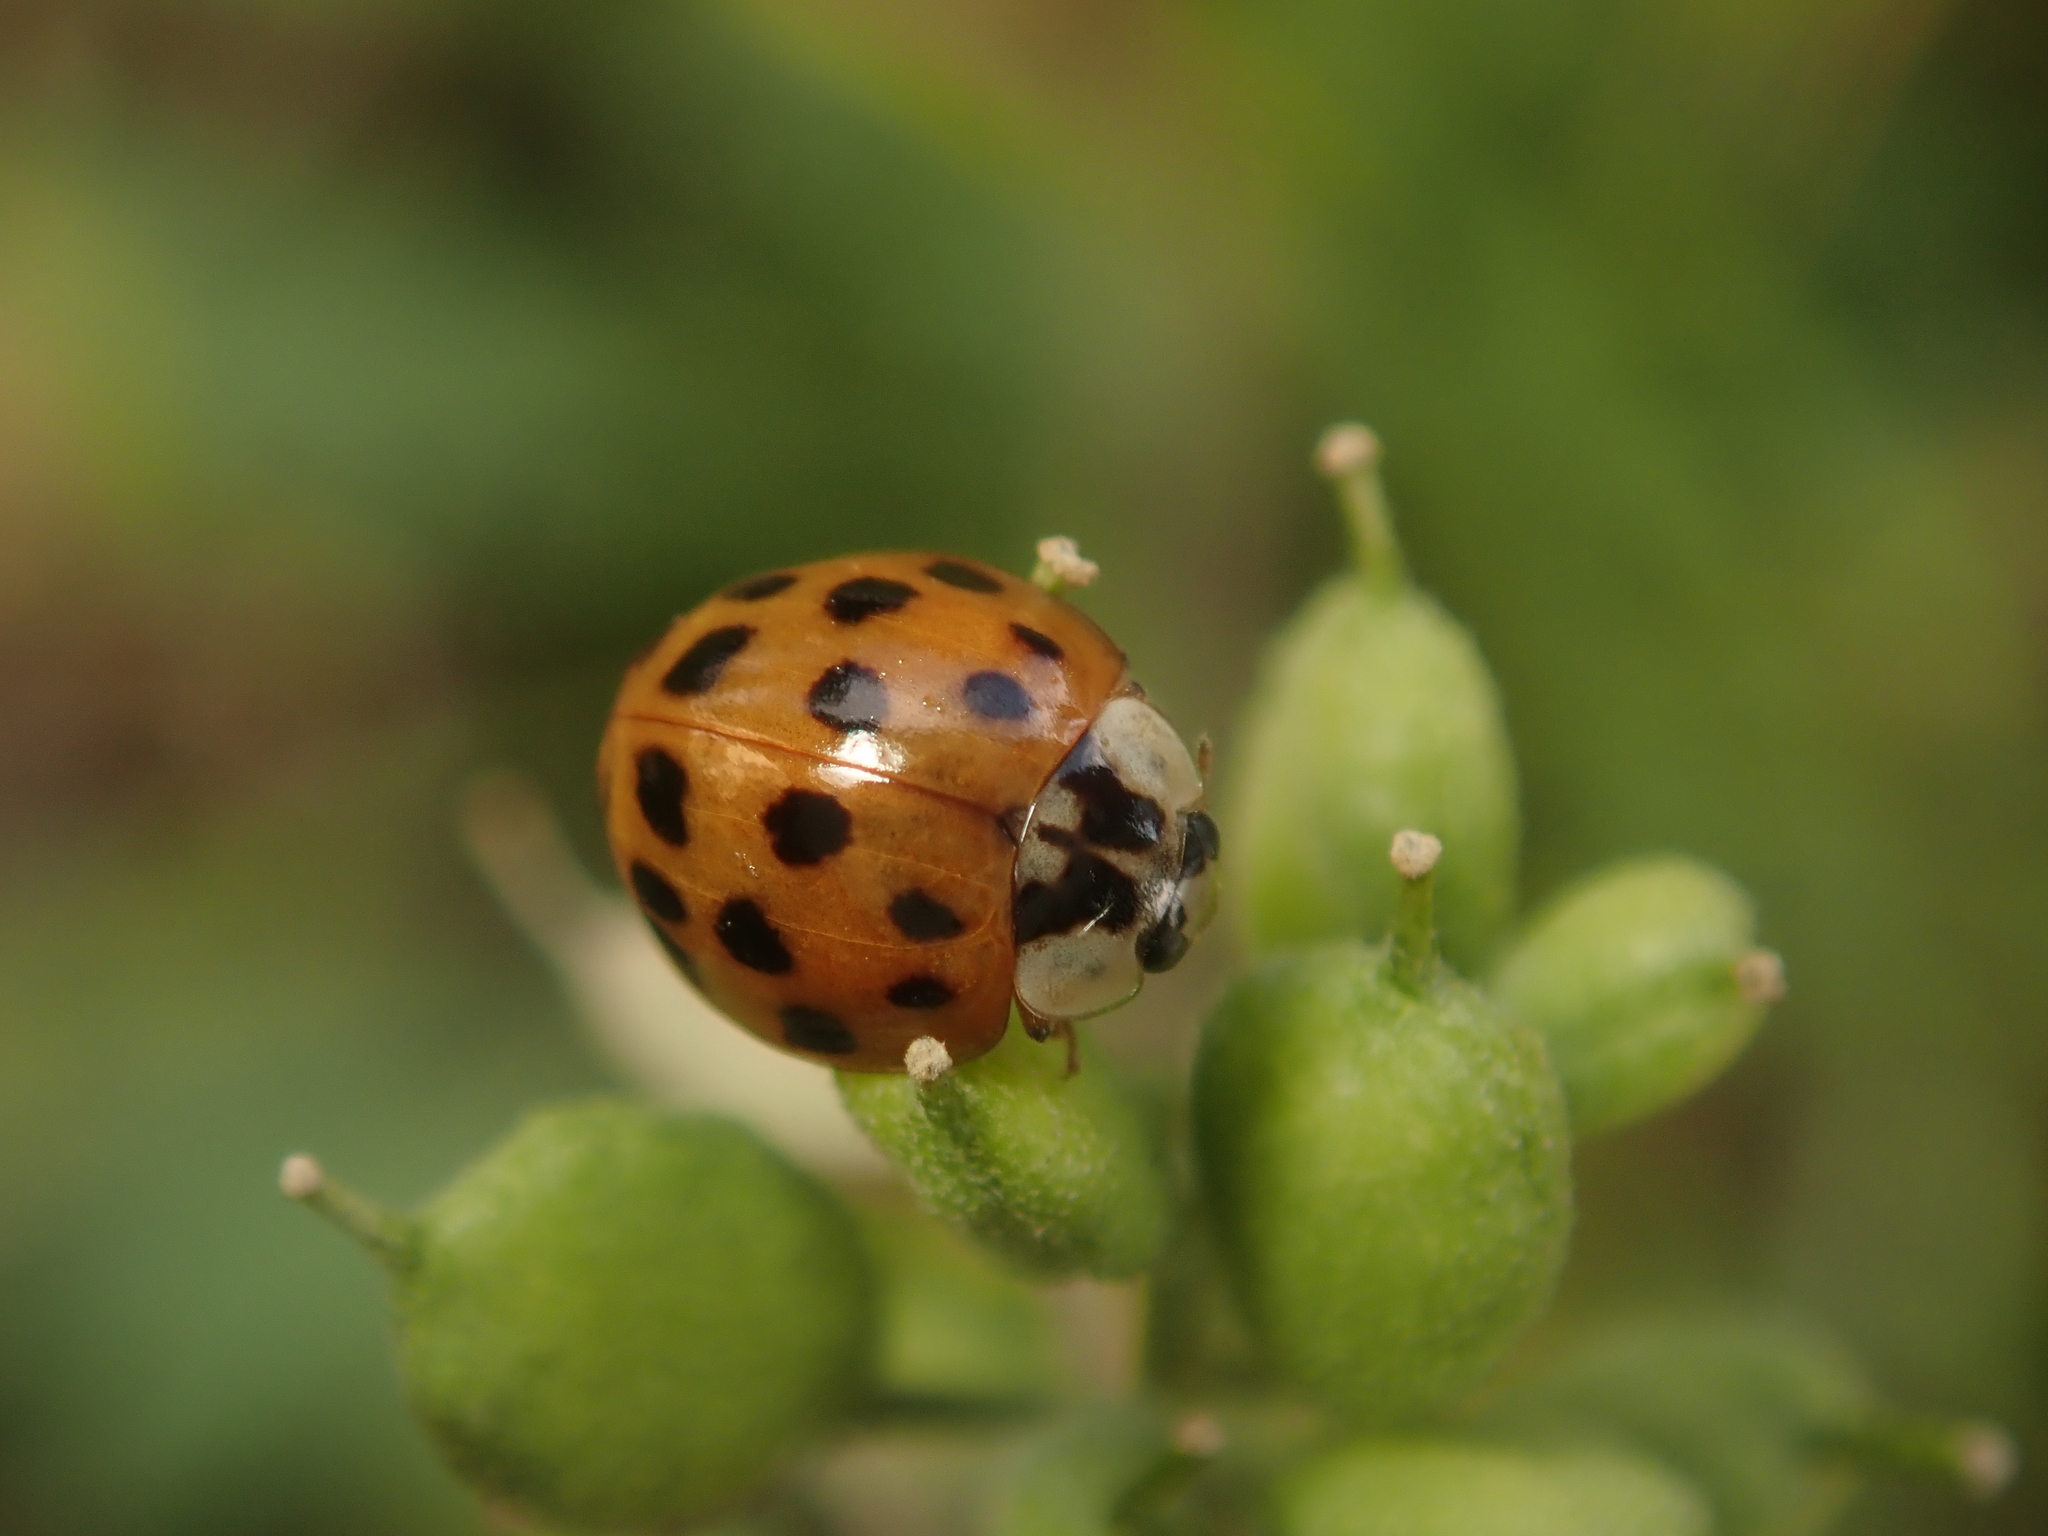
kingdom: Animalia
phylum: Arthropoda
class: Insecta
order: Coleoptera
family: Coccinellidae
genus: Harmonia
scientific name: Harmonia axyridis
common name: Harlequin ladybird
